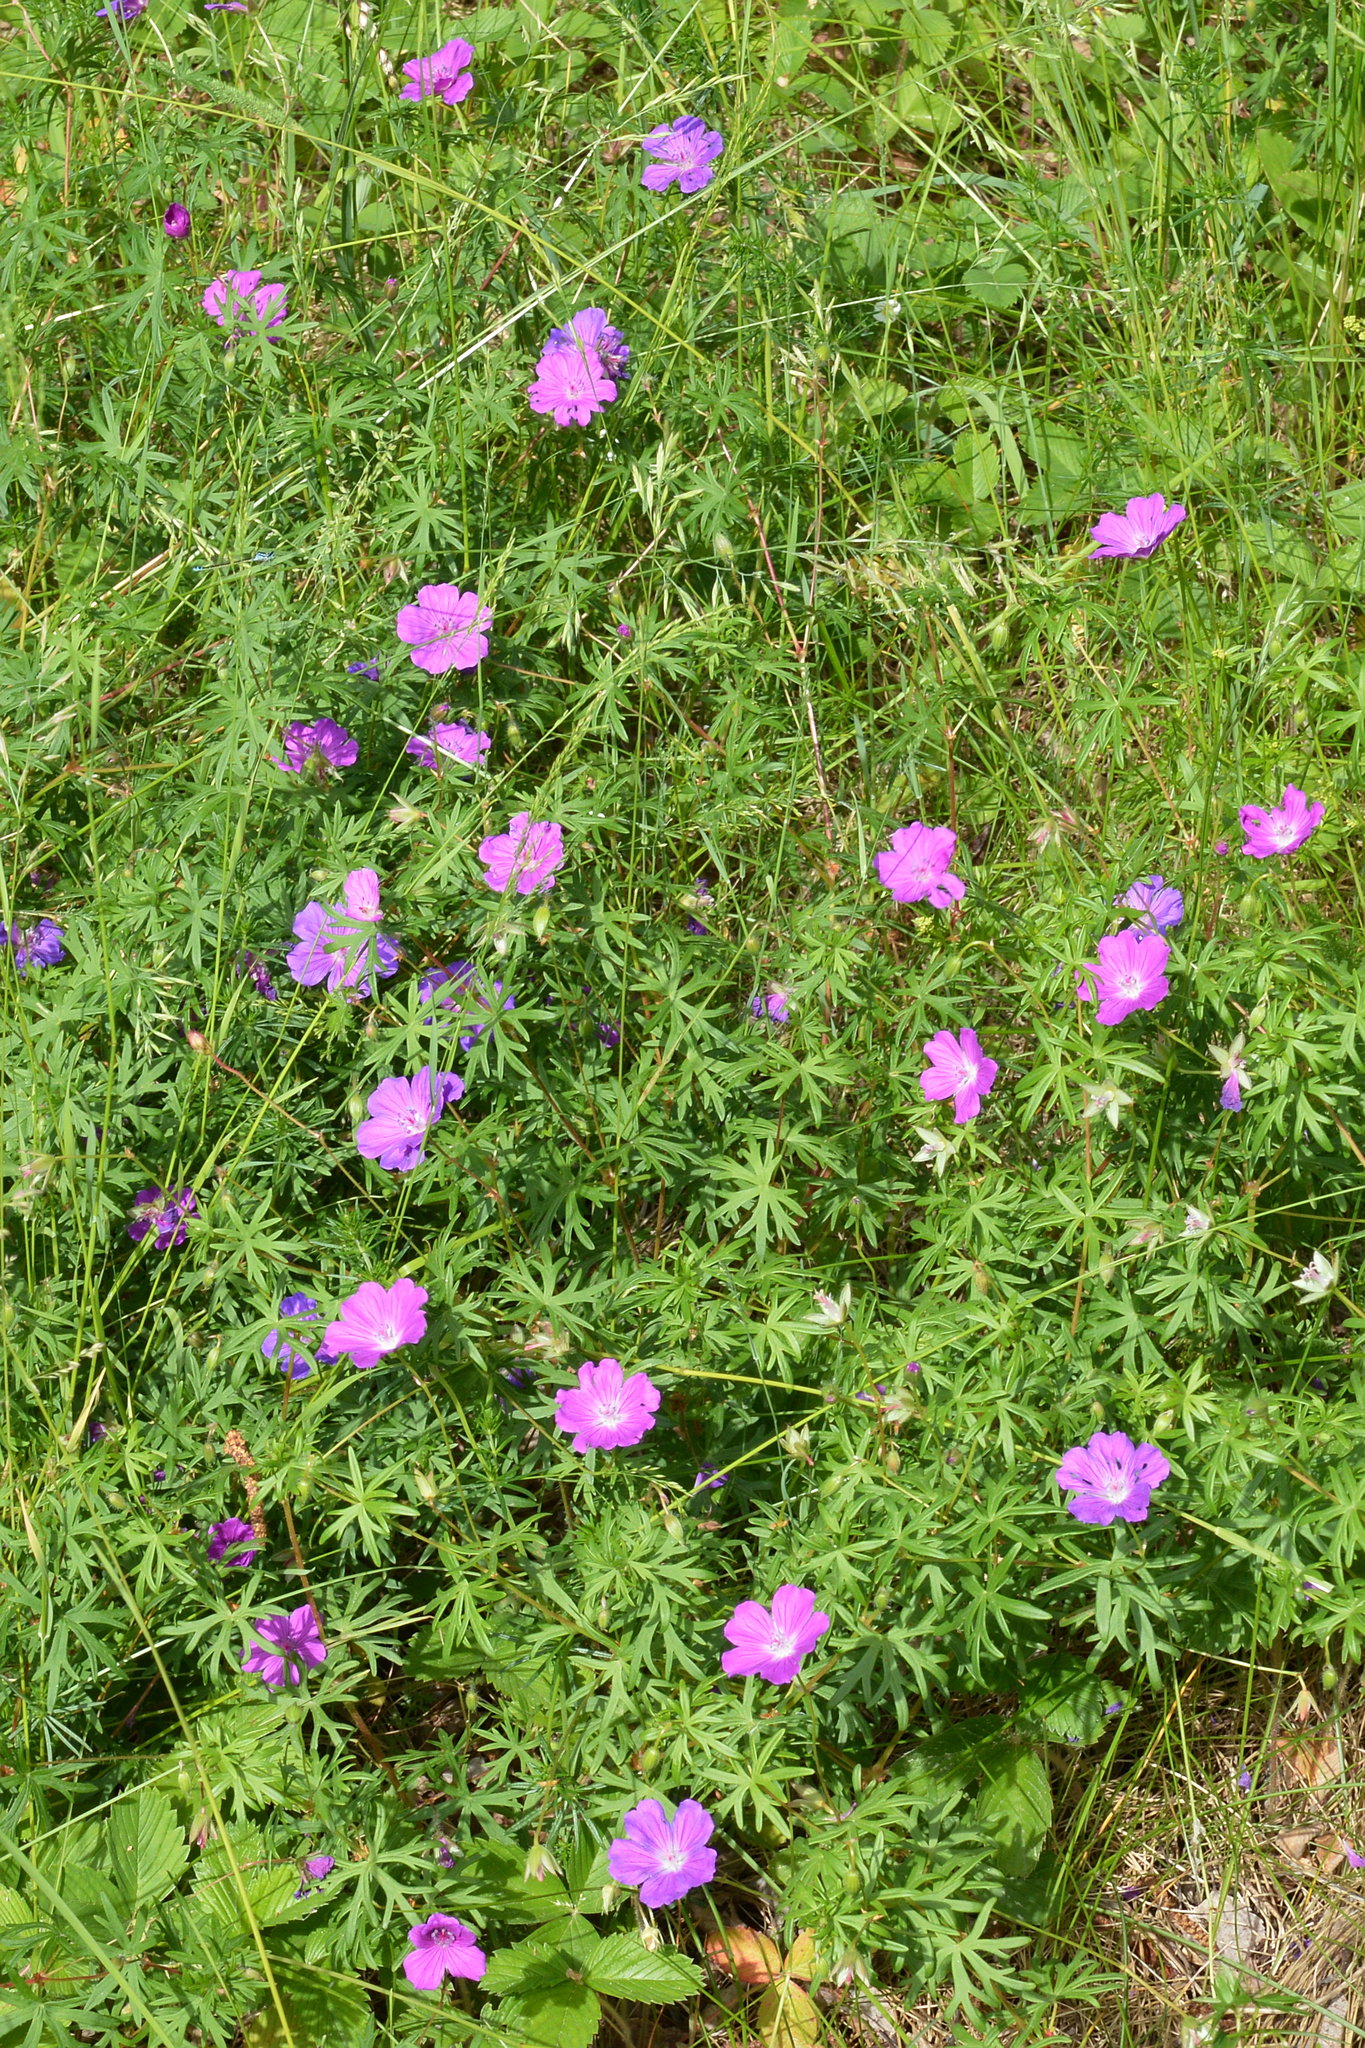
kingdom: Plantae
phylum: Tracheophyta
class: Magnoliopsida
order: Geraniales
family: Geraniaceae
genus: Geranium
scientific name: Geranium sanguineum
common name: Bloody crane's-bill
